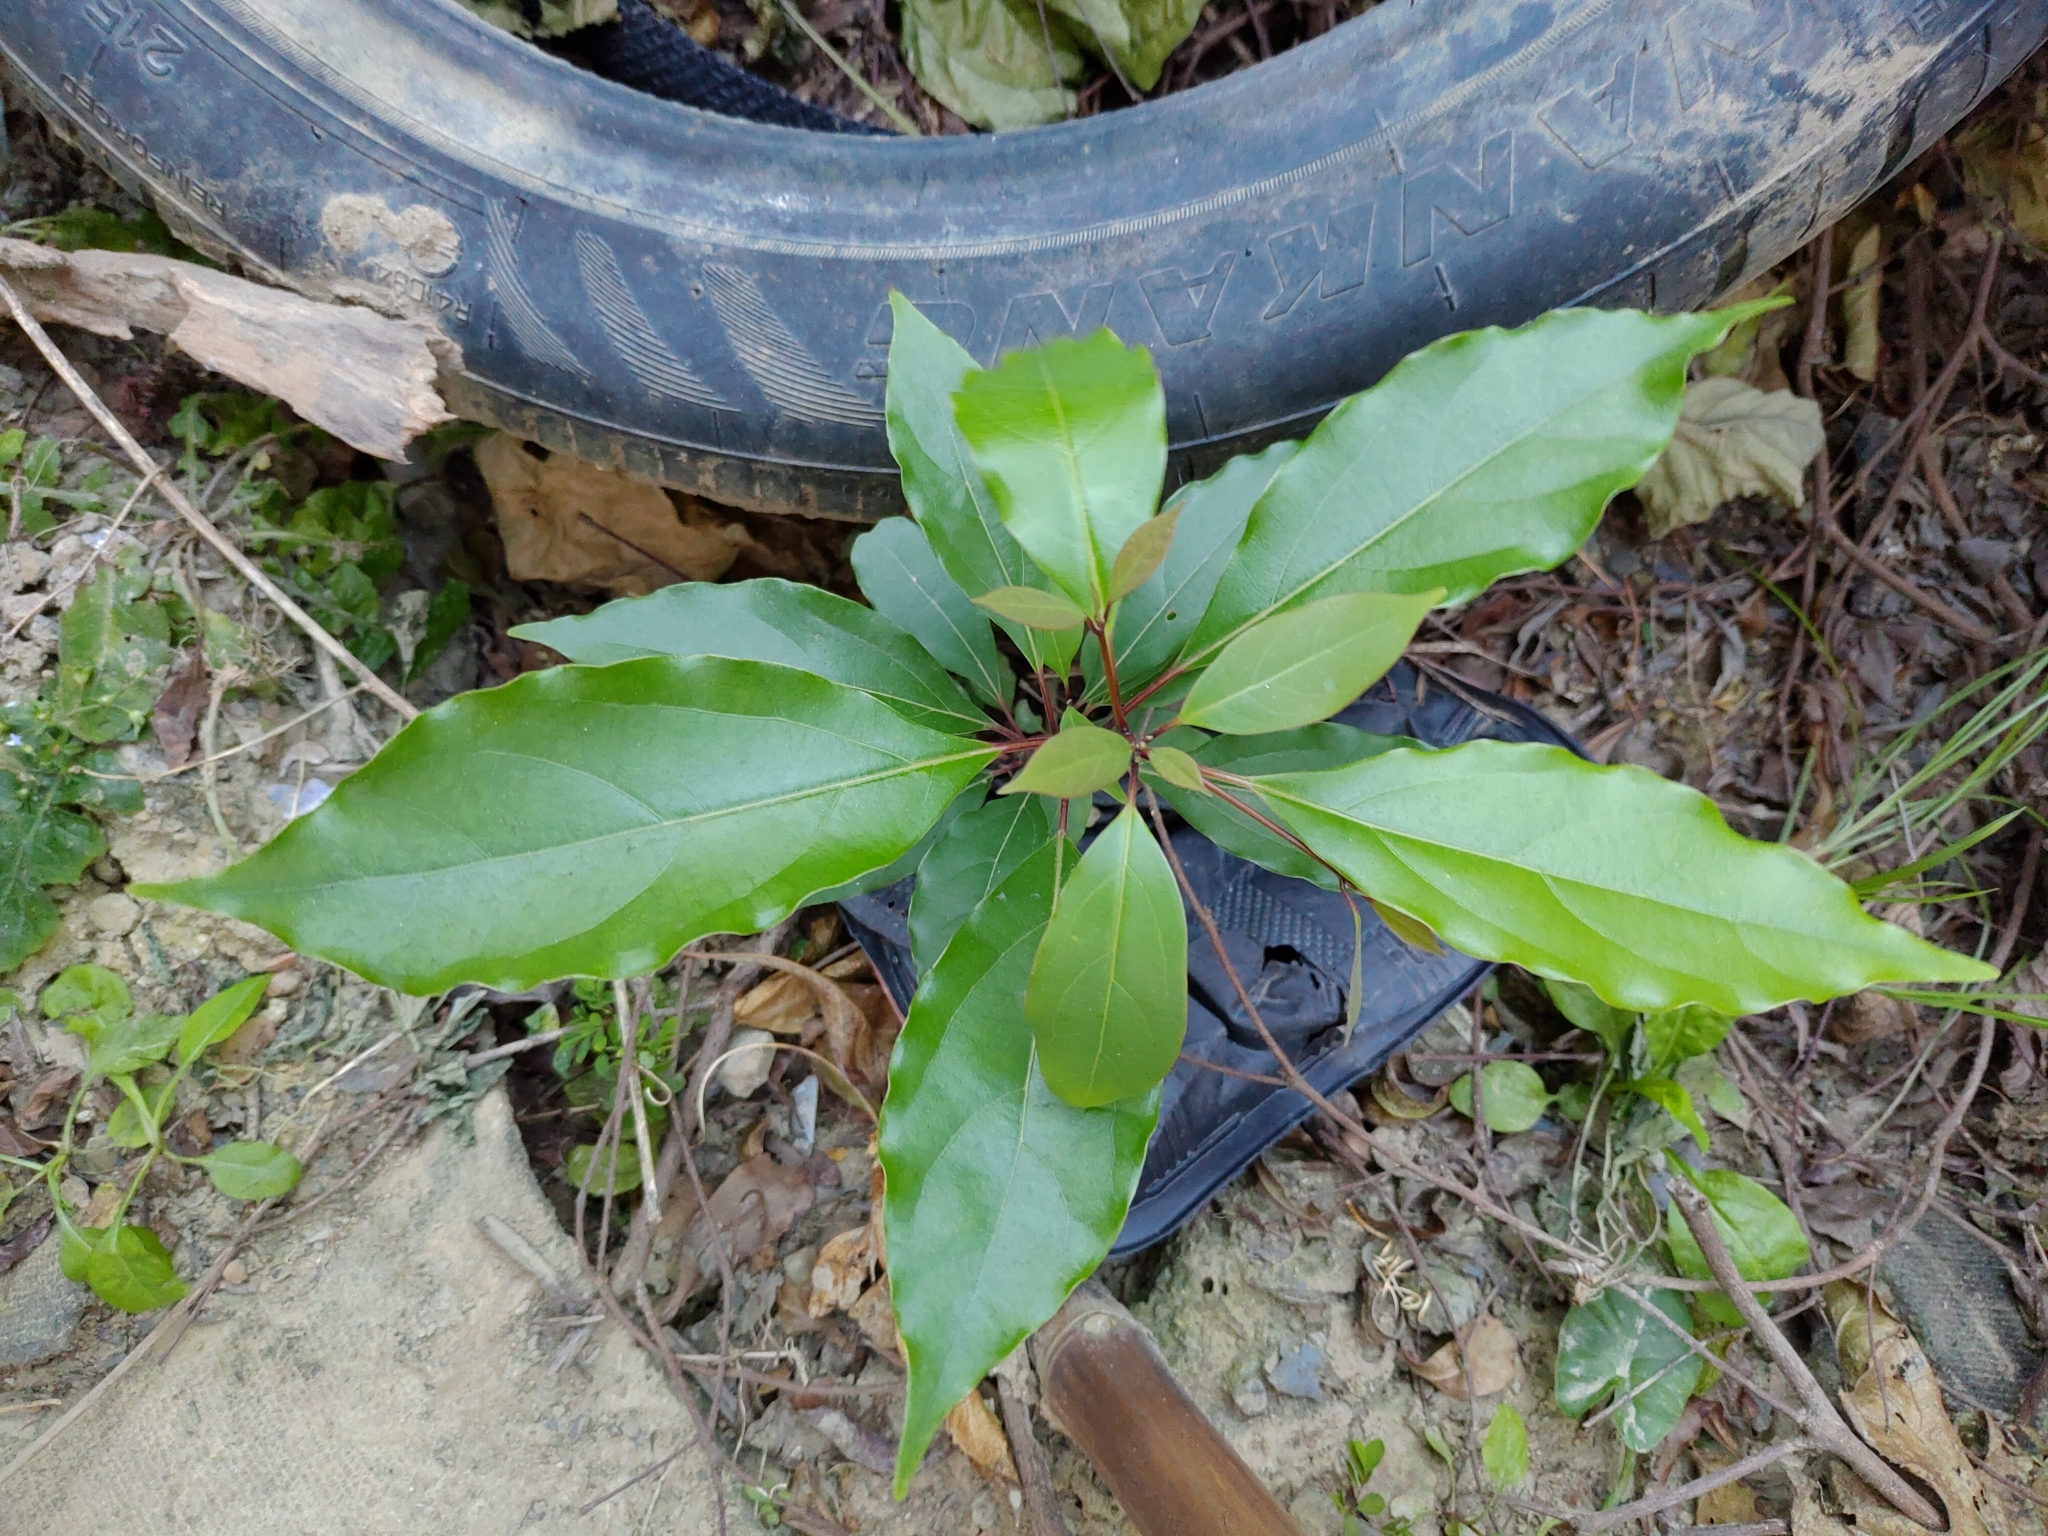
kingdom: Plantae
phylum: Tracheophyta
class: Magnoliopsida
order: Laurales
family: Lauraceae
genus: Cinnamomum
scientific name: Cinnamomum camphora
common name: Camphortree
